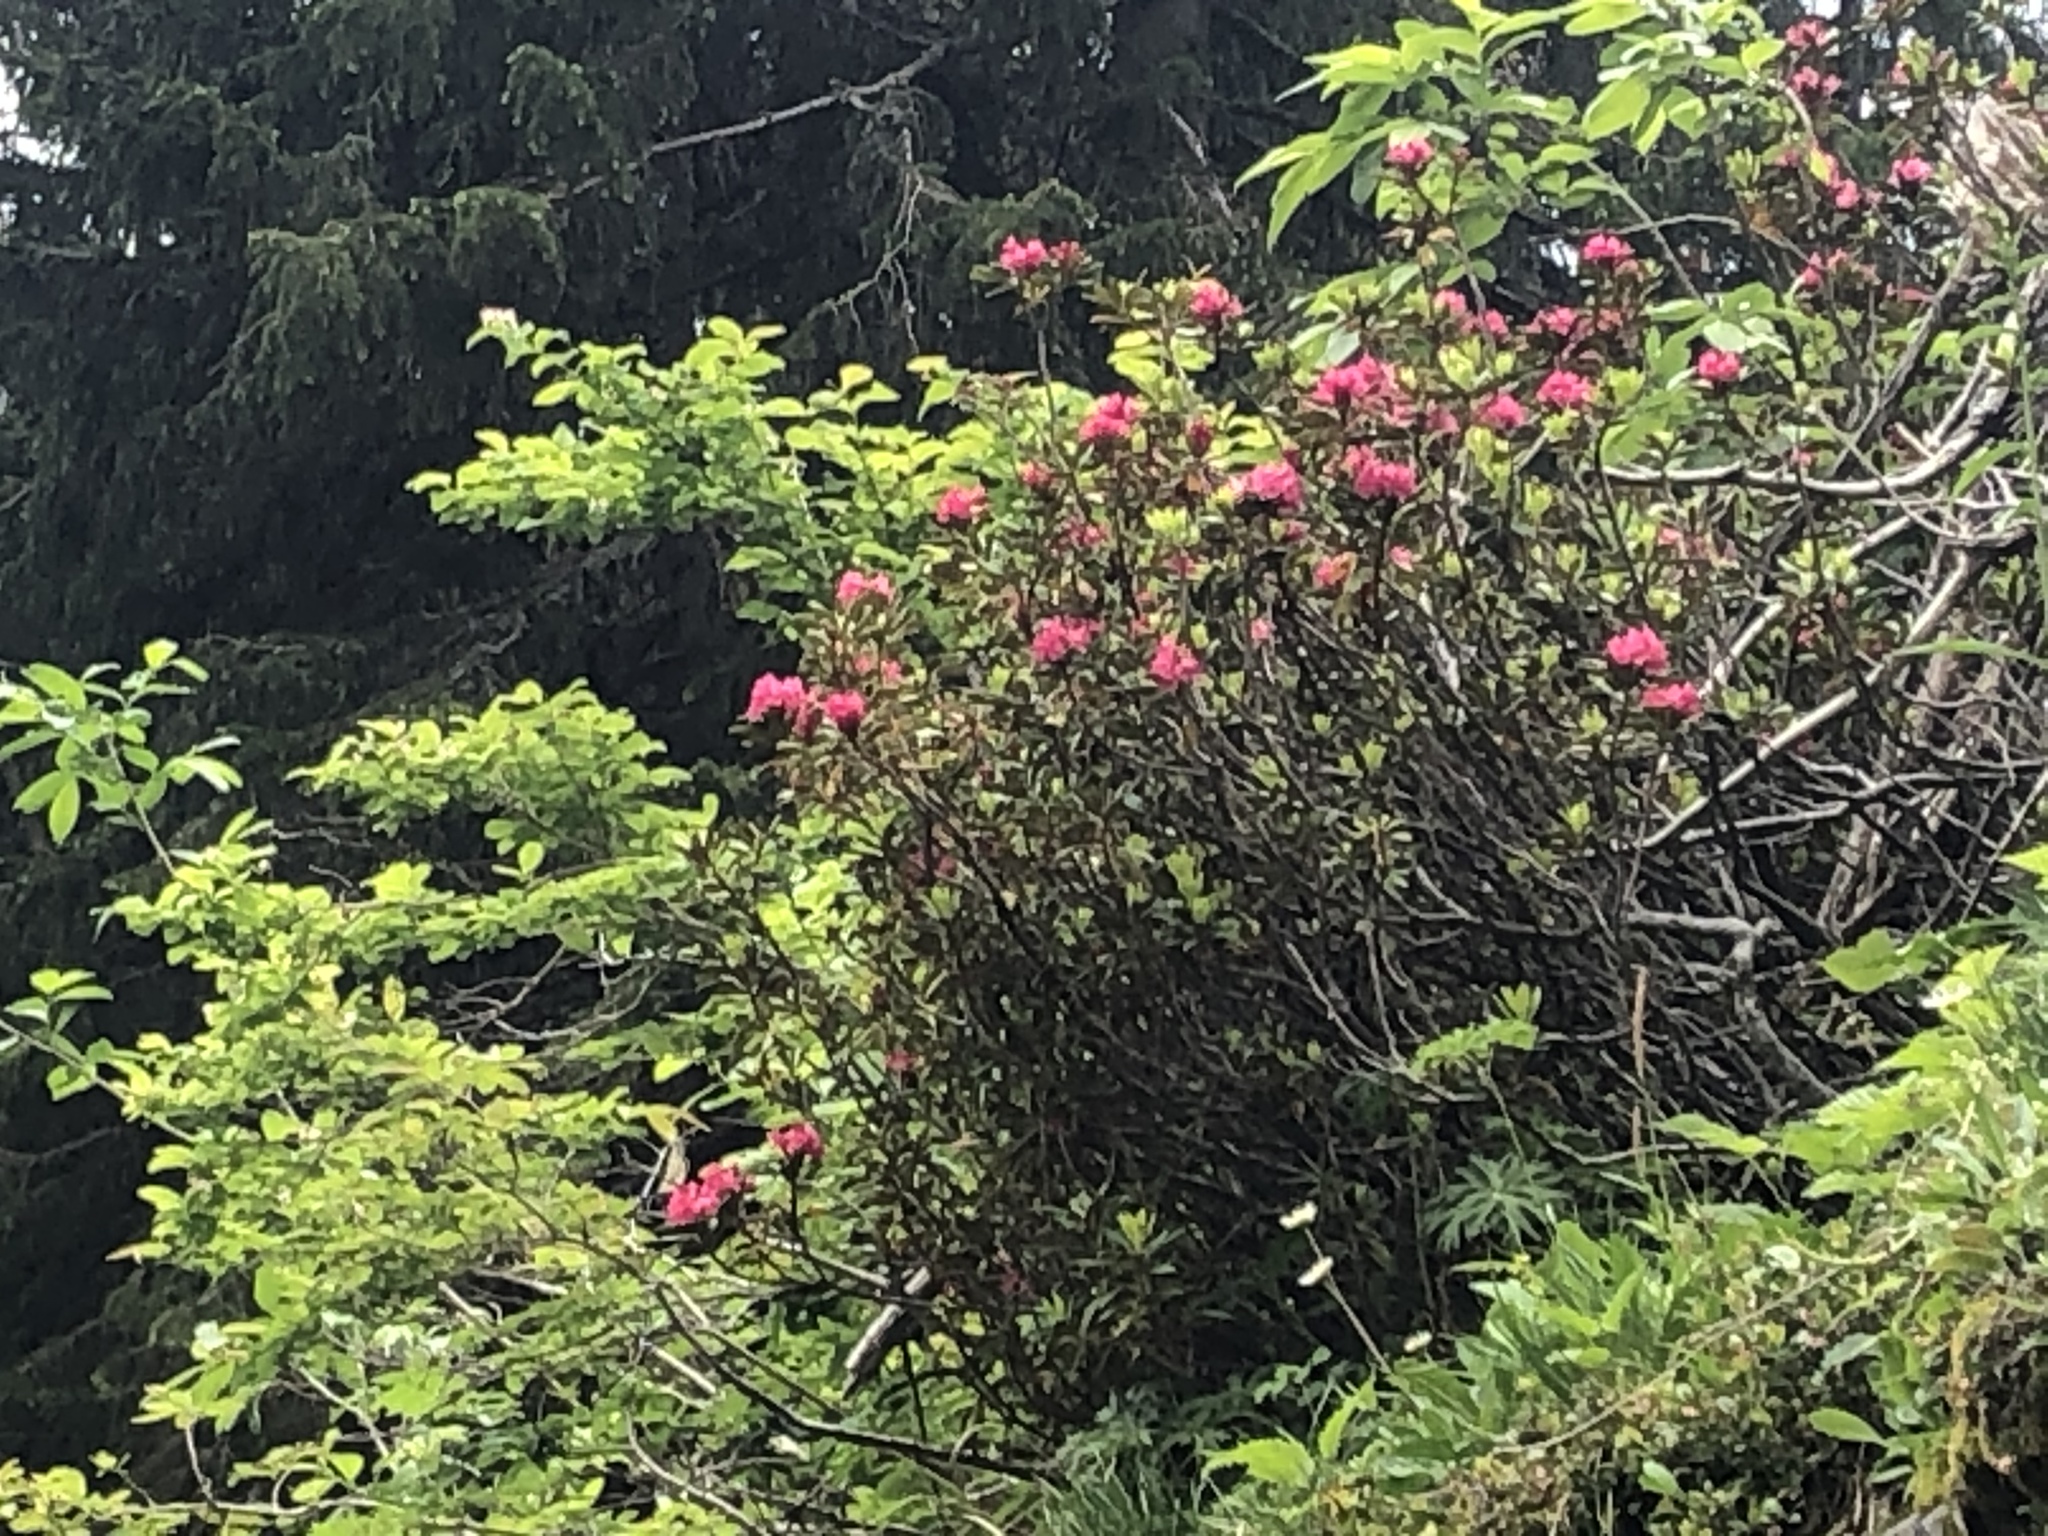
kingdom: Plantae
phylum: Tracheophyta
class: Magnoliopsida
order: Ericales
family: Ericaceae
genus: Rhododendron
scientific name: Rhododendron ferrugineum
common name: Alpenrose
